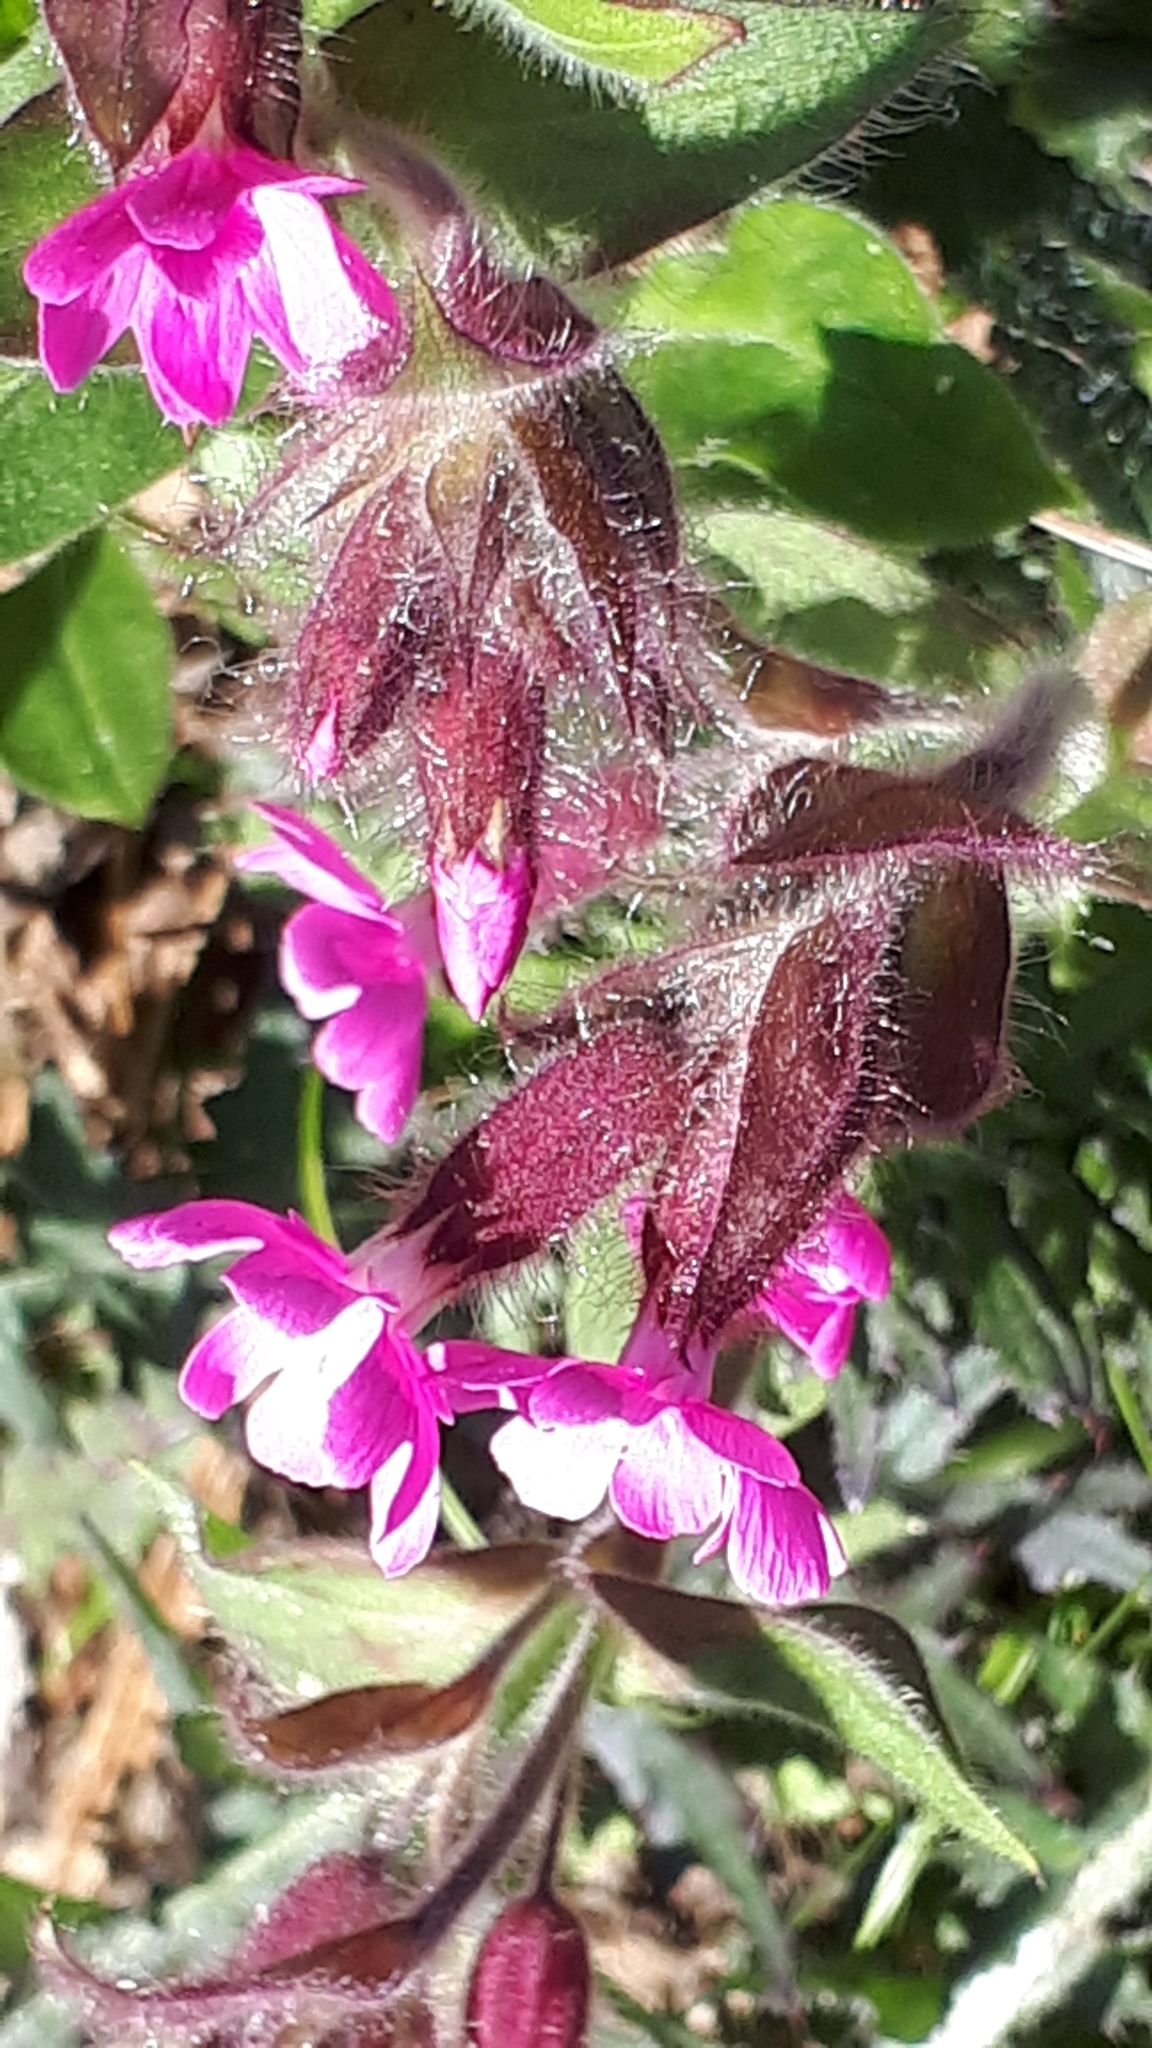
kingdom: Plantae
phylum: Tracheophyta
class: Magnoliopsida
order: Caryophyllales
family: Caryophyllaceae
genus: Silene
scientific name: Silene dioica
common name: Red campion
